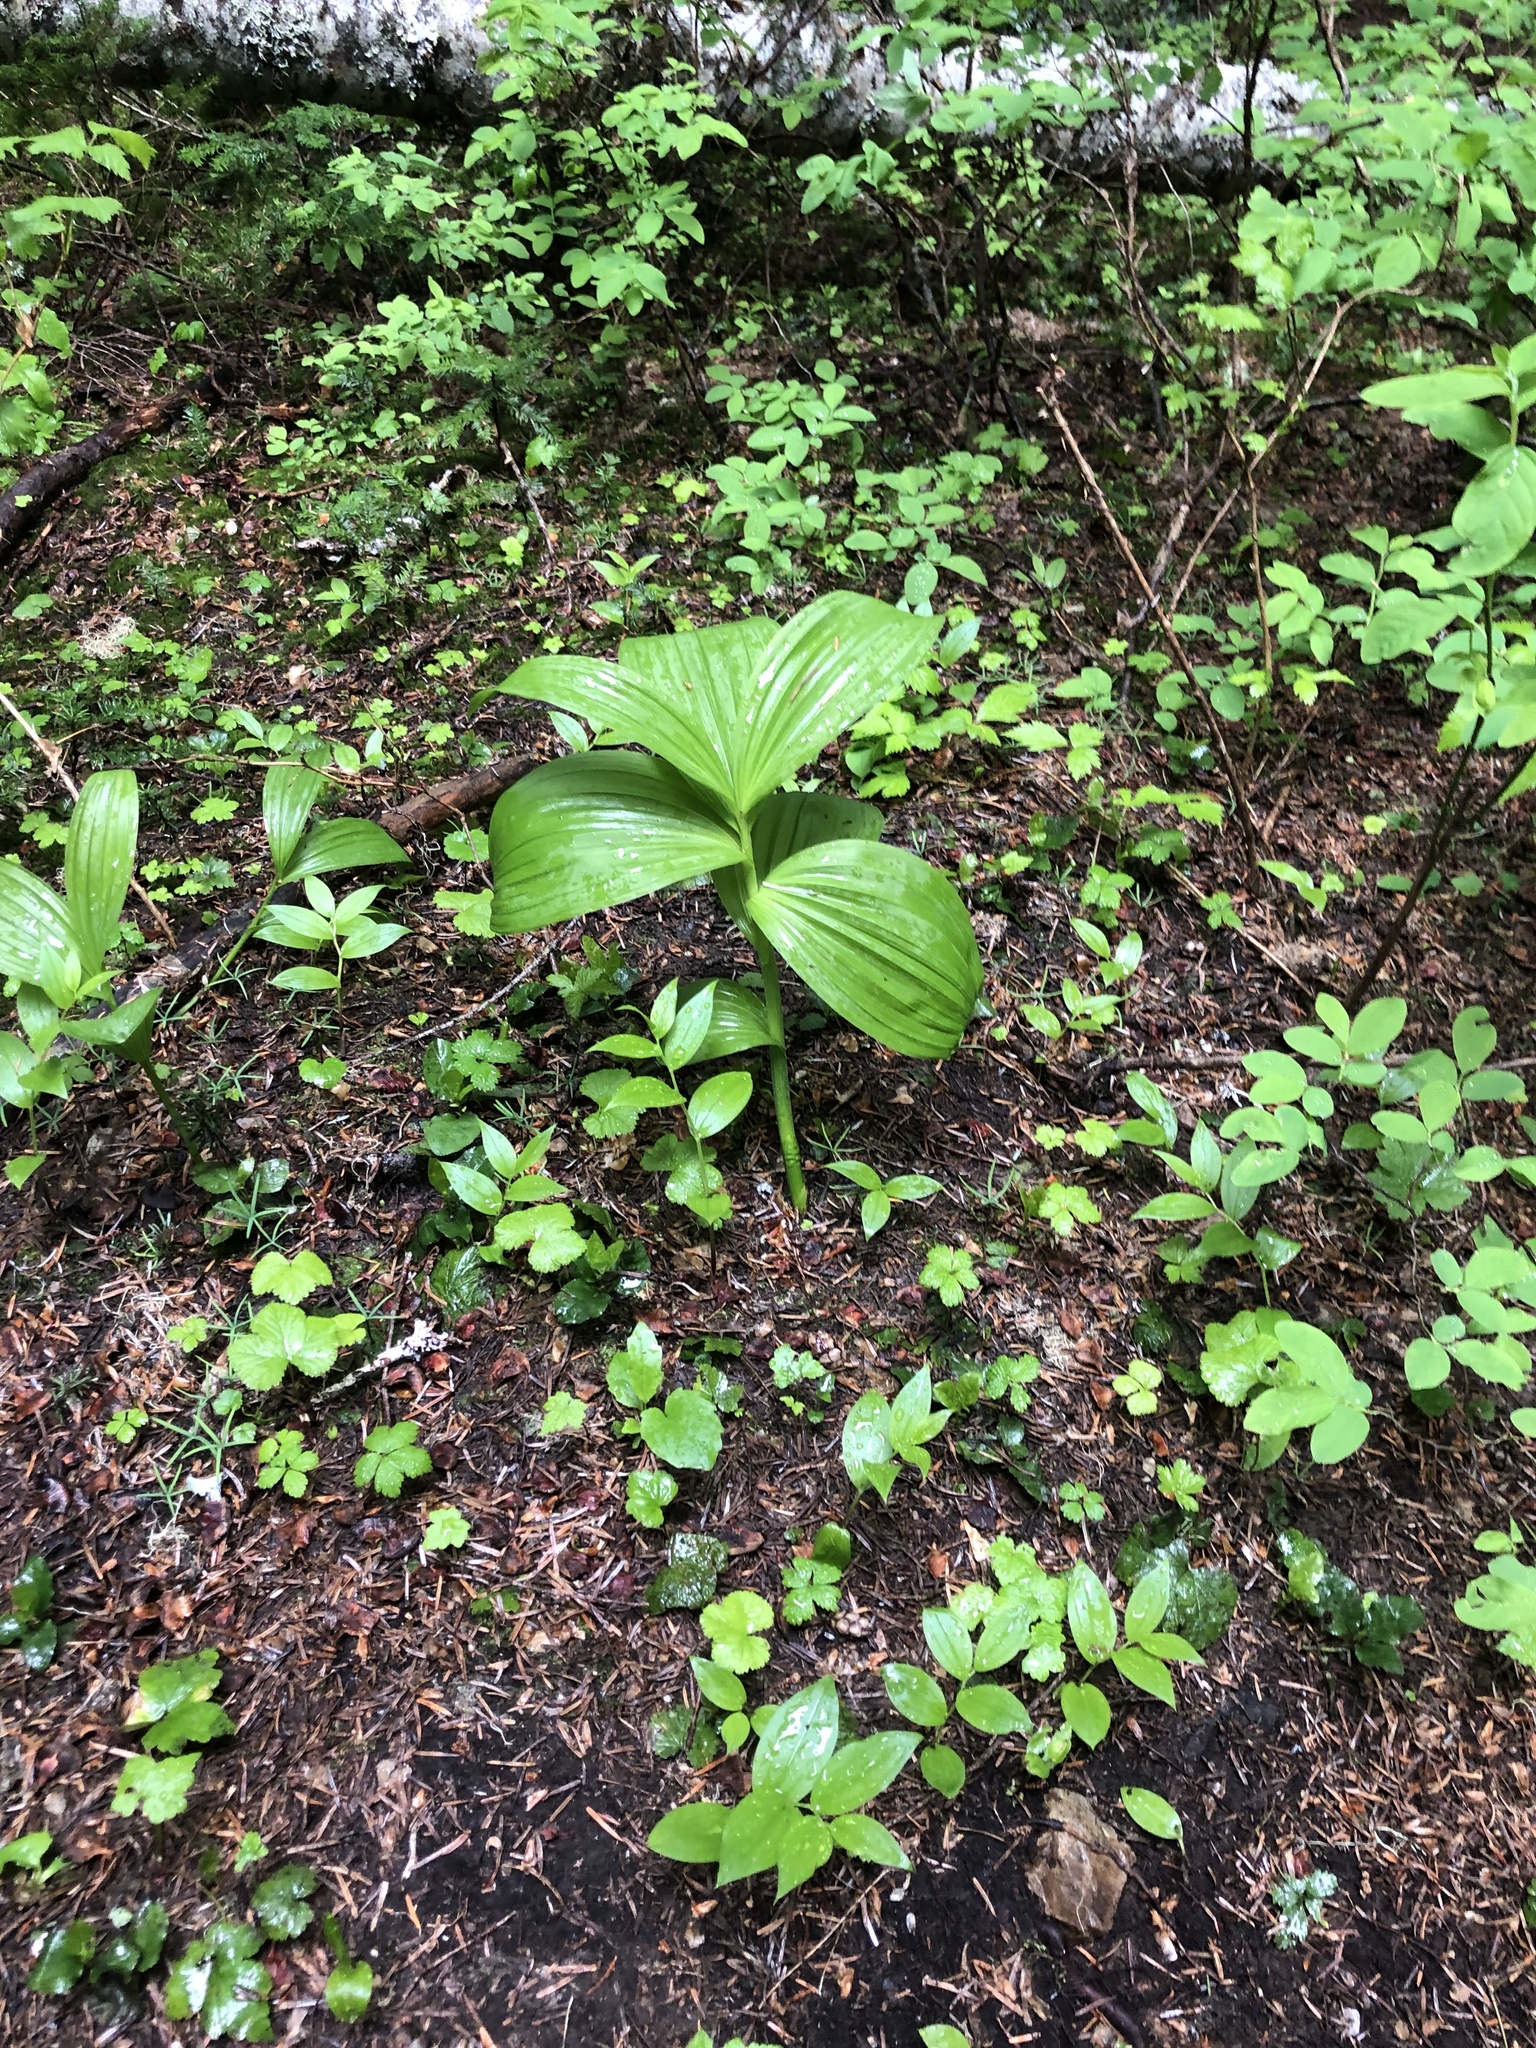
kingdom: Plantae
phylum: Tracheophyta
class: Liliopsida
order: Liliales
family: Melanthiaceae
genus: Veratrum
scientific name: Veratrum viride
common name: American false hellebore
